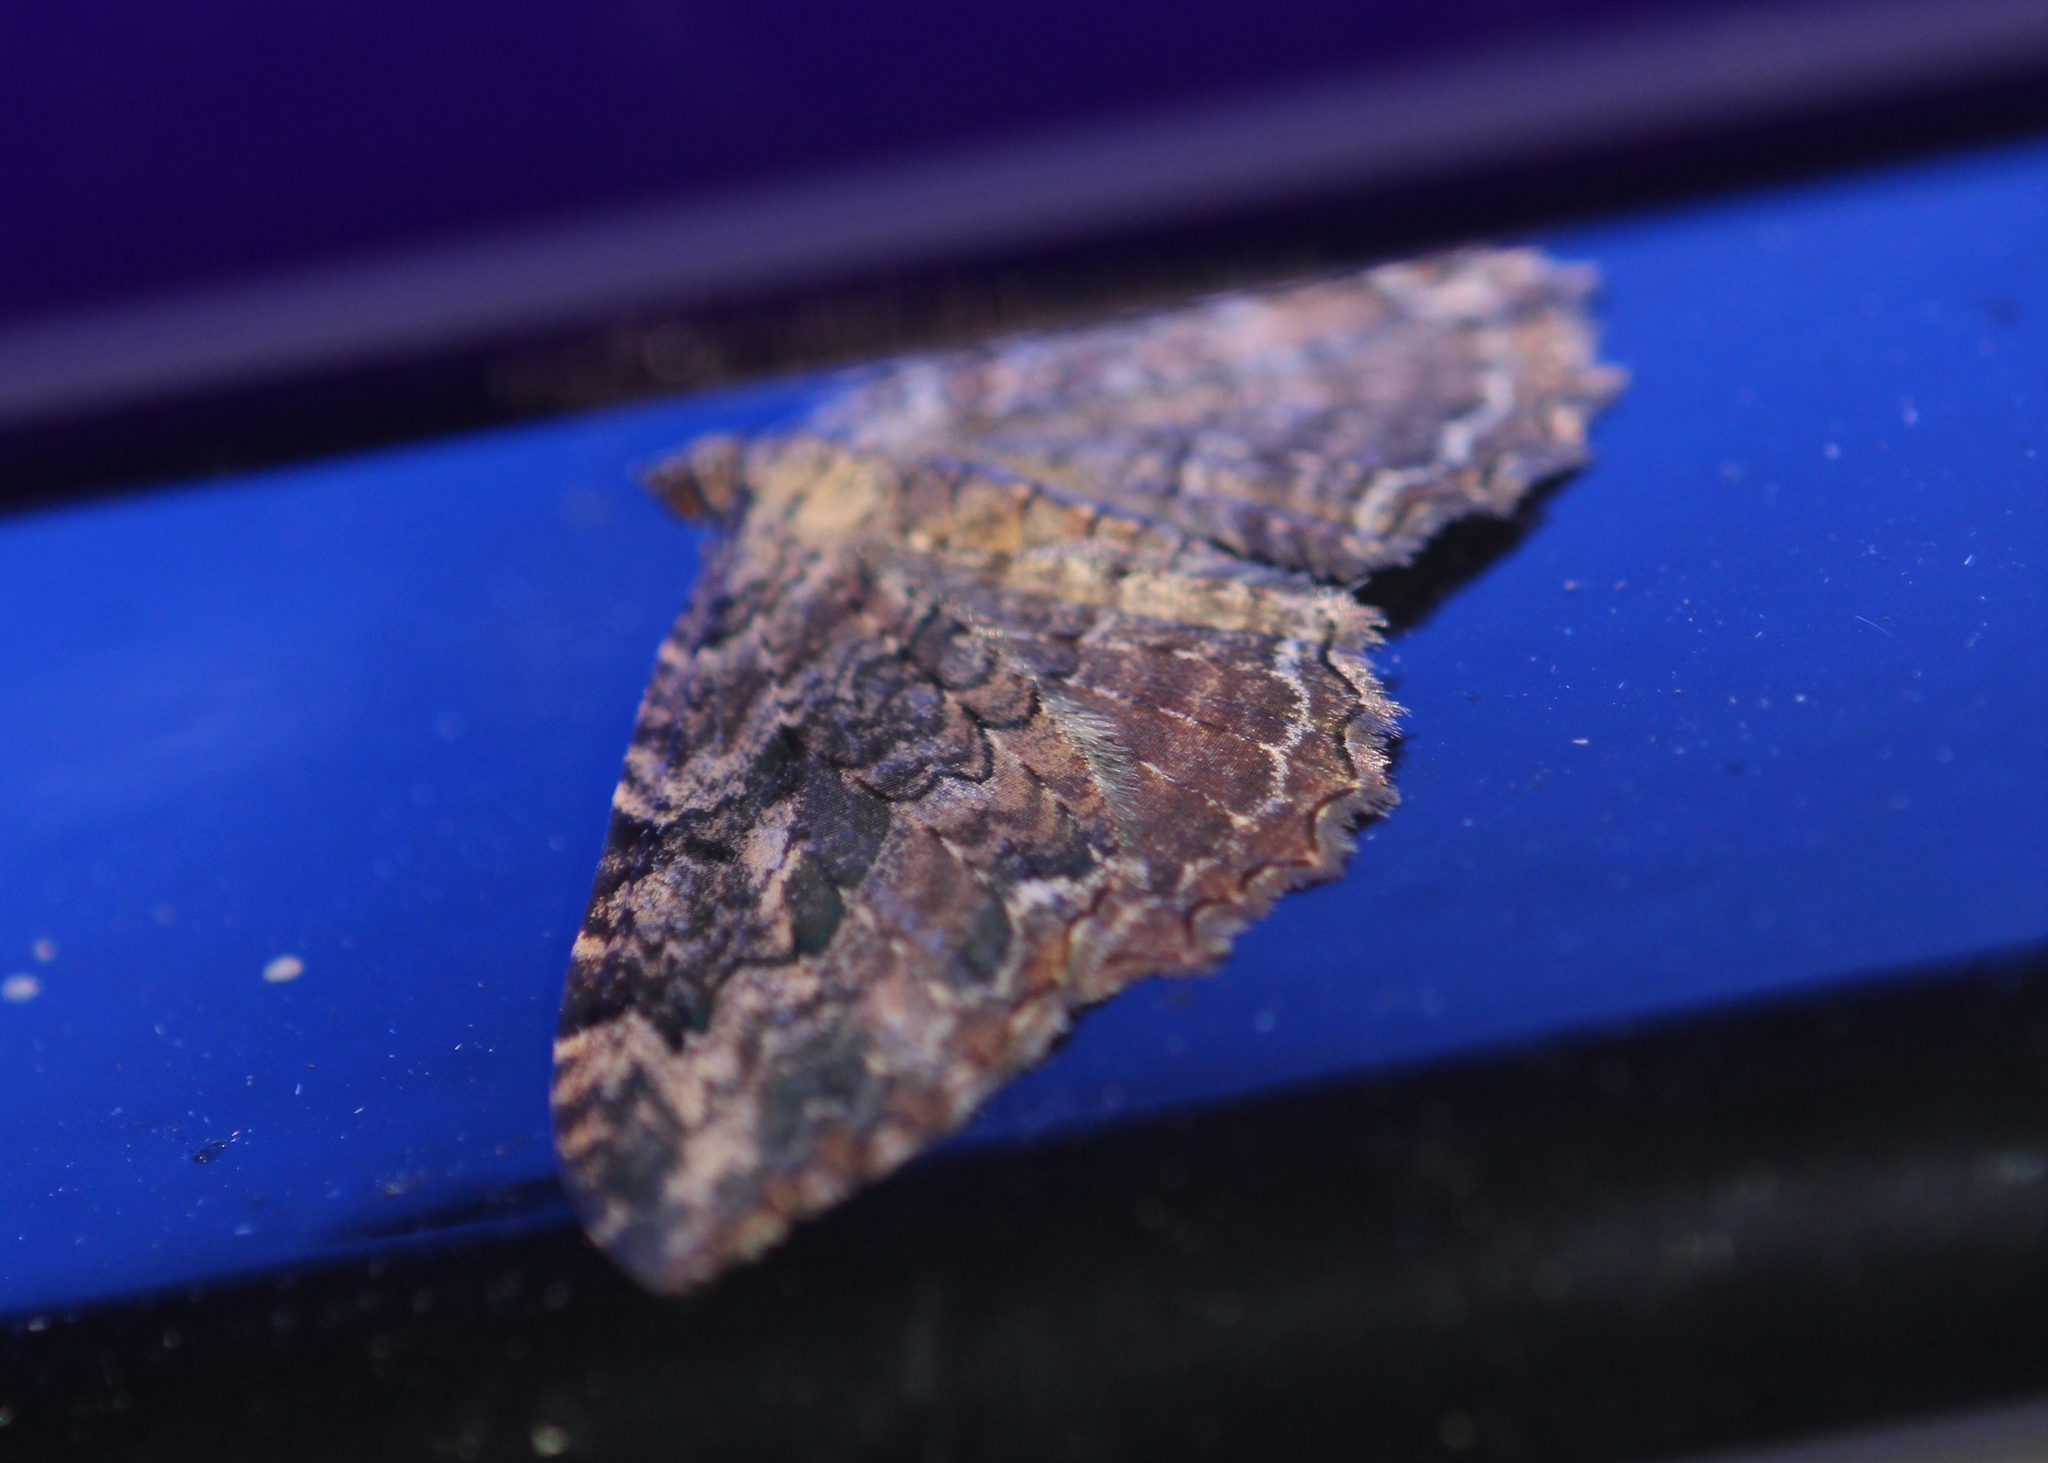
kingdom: Animalia
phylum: Arthropoda
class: Insecta
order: Lepidoptera
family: Geometridae
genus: Rheumaptera
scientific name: Rheumaptera
